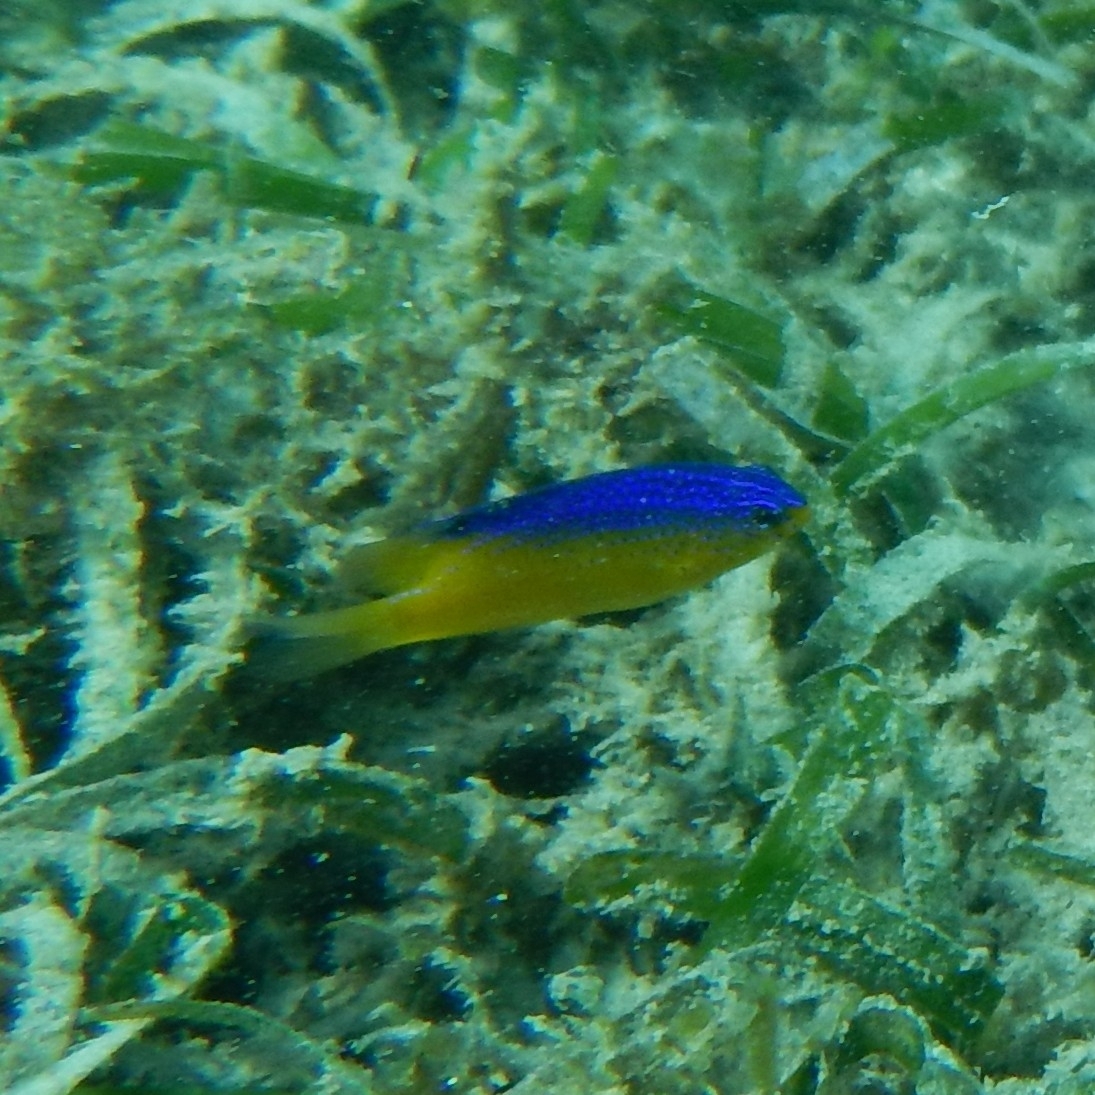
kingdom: Animalia
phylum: Chordata
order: Perciformes
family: Pomacentridae
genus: Stegastes
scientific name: Stegastes leucostictus
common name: Beaugregory
